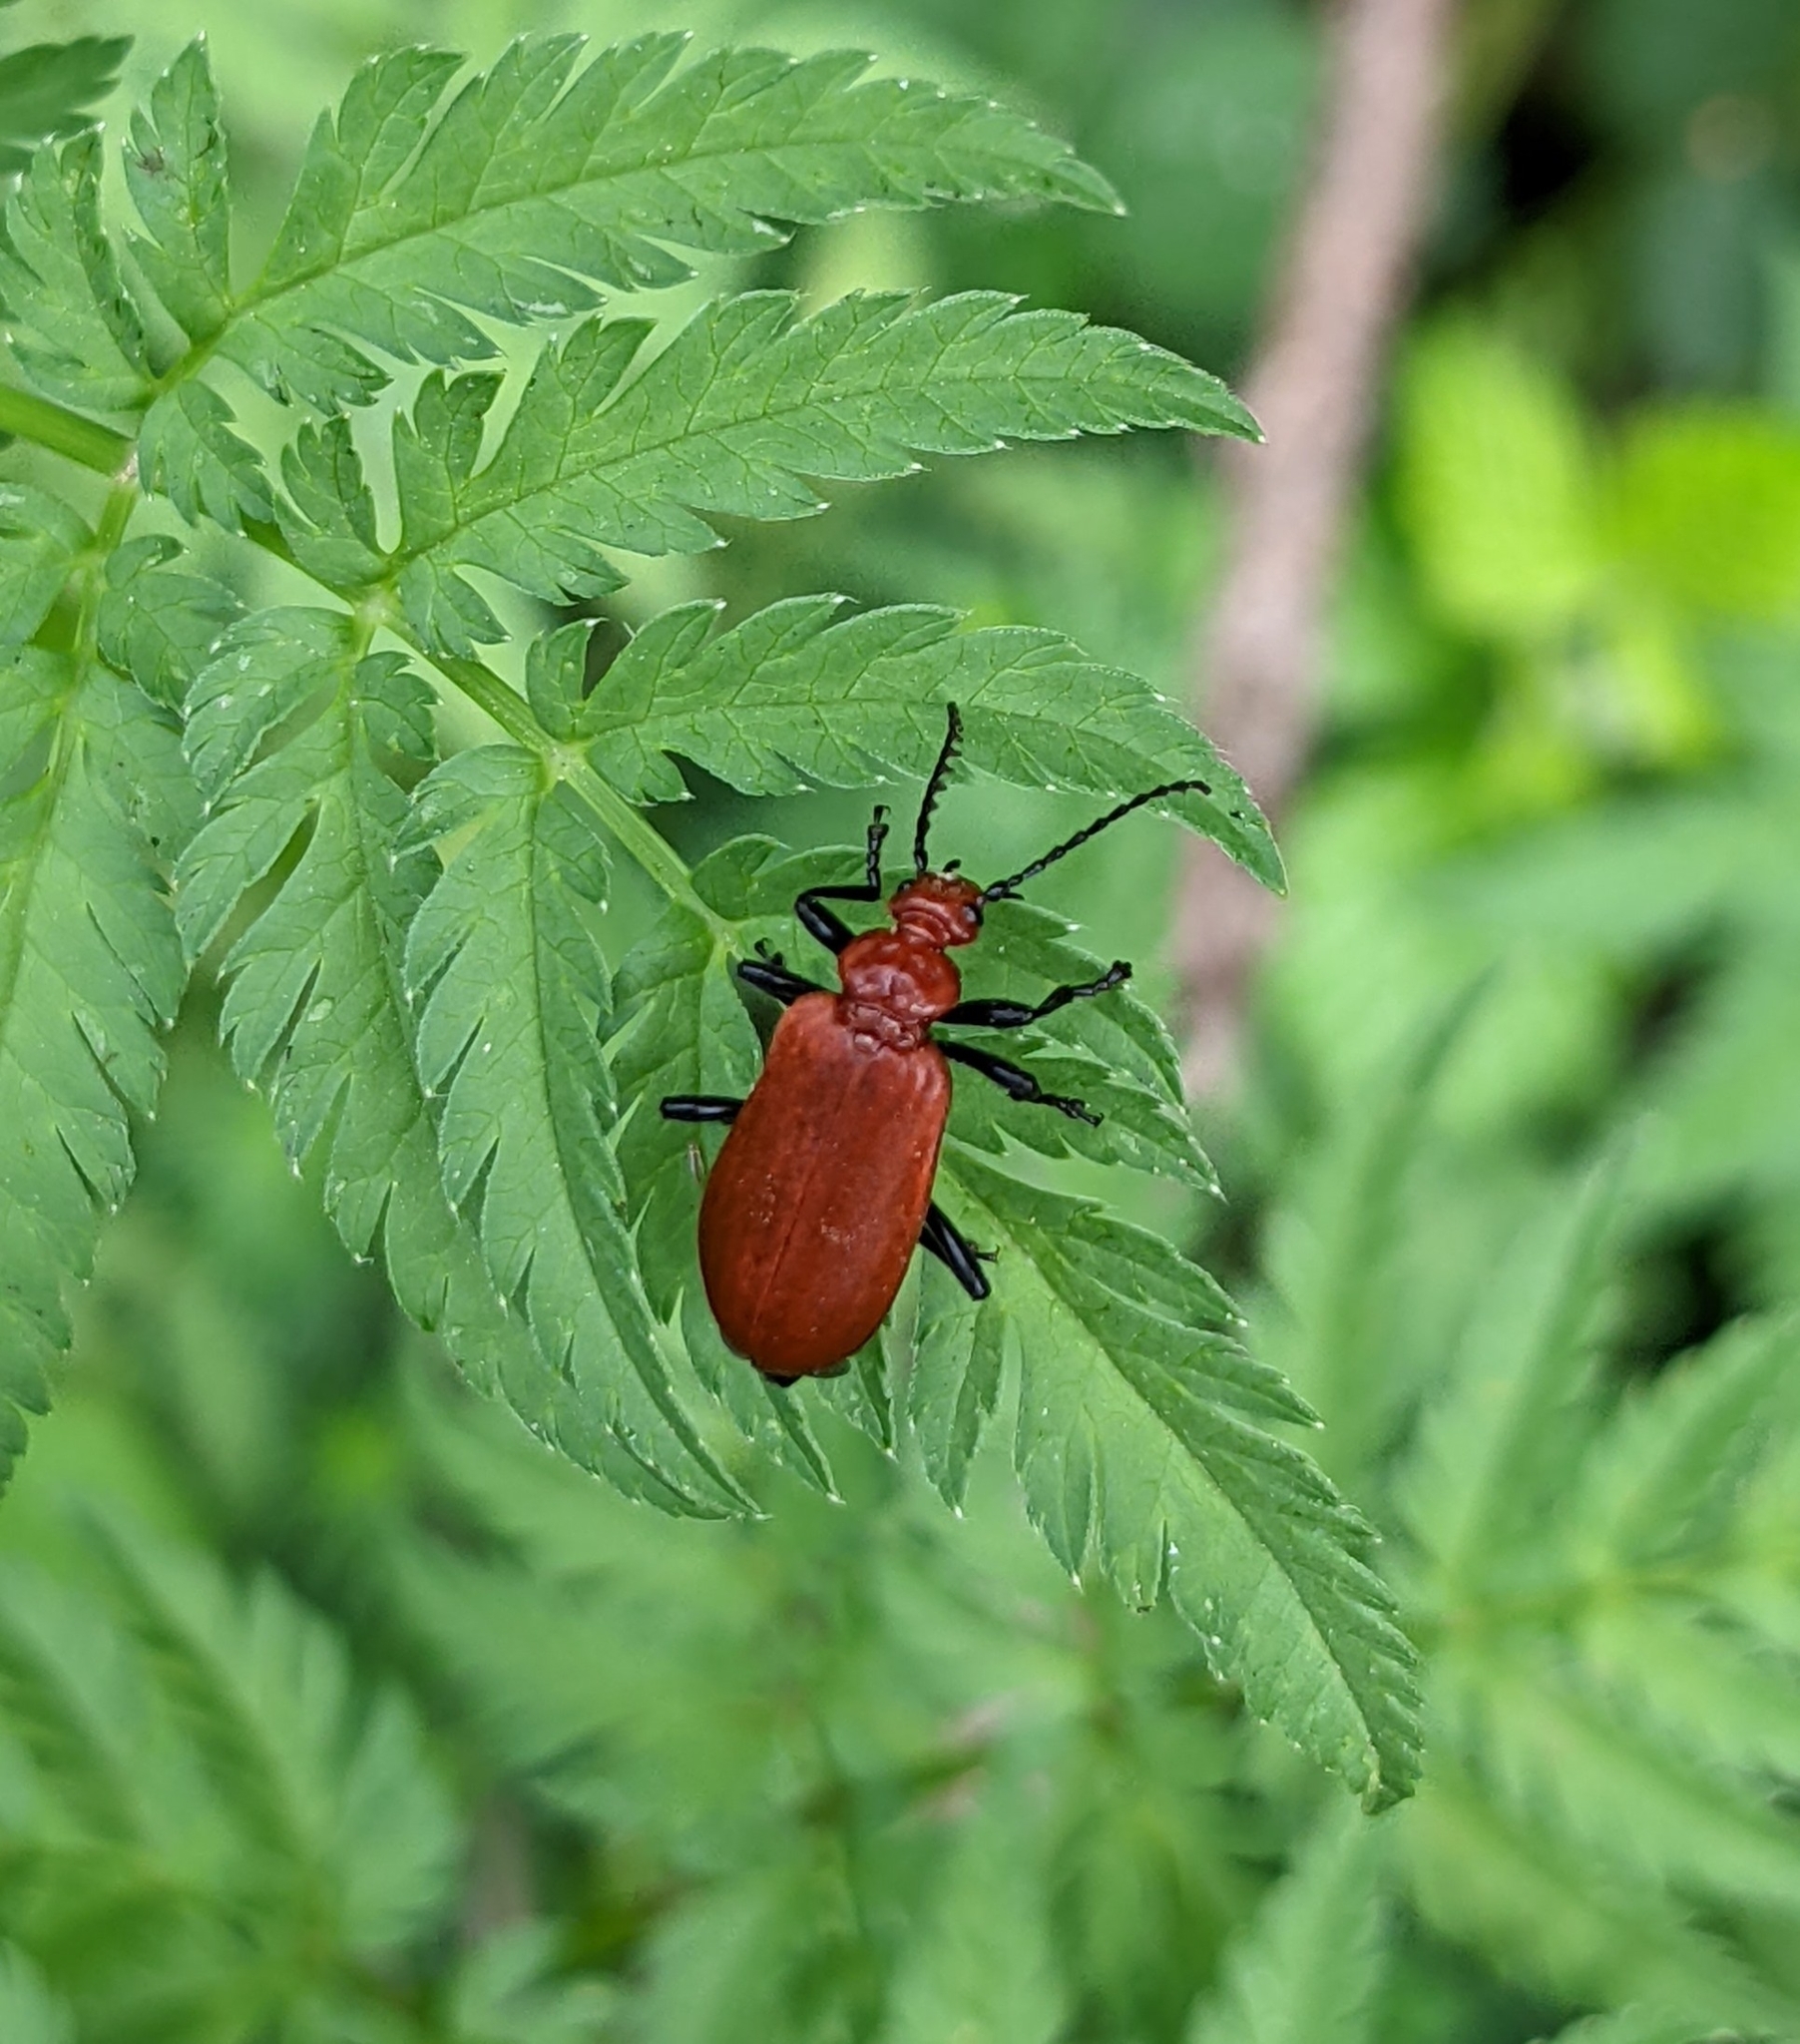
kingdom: Animalia
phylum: Arthropoda
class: Insecta
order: Coleoptera
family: Pyrochroidae
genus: Pyrochroa
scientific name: Pyrochroa serraticornis
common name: Red-headed cardinal beetle
